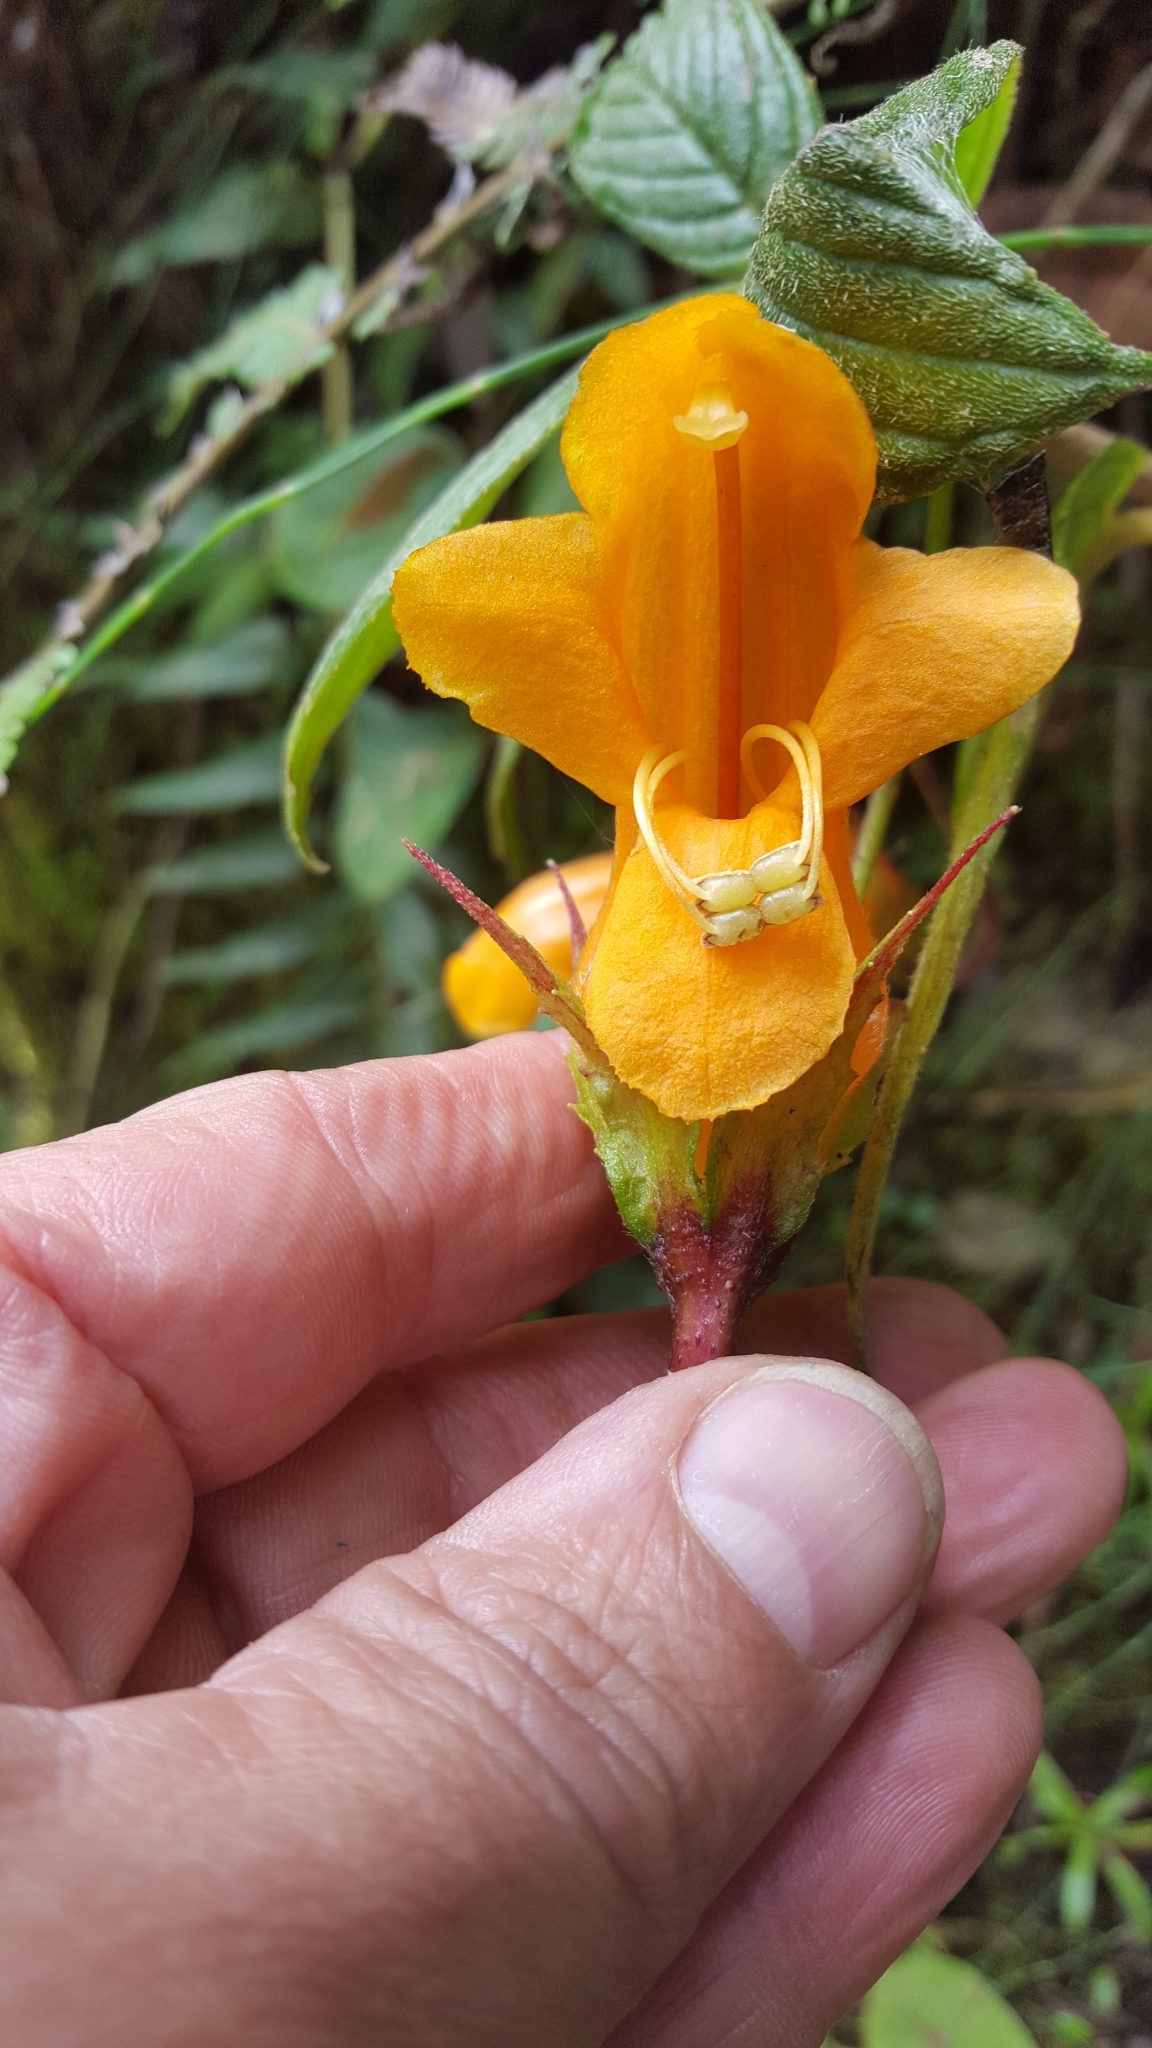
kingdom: Plantae
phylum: Tracheophyta
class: Magnoliopsida
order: Lamiales
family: Gesneriaceae
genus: Columnea
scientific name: Columnea strigosa
